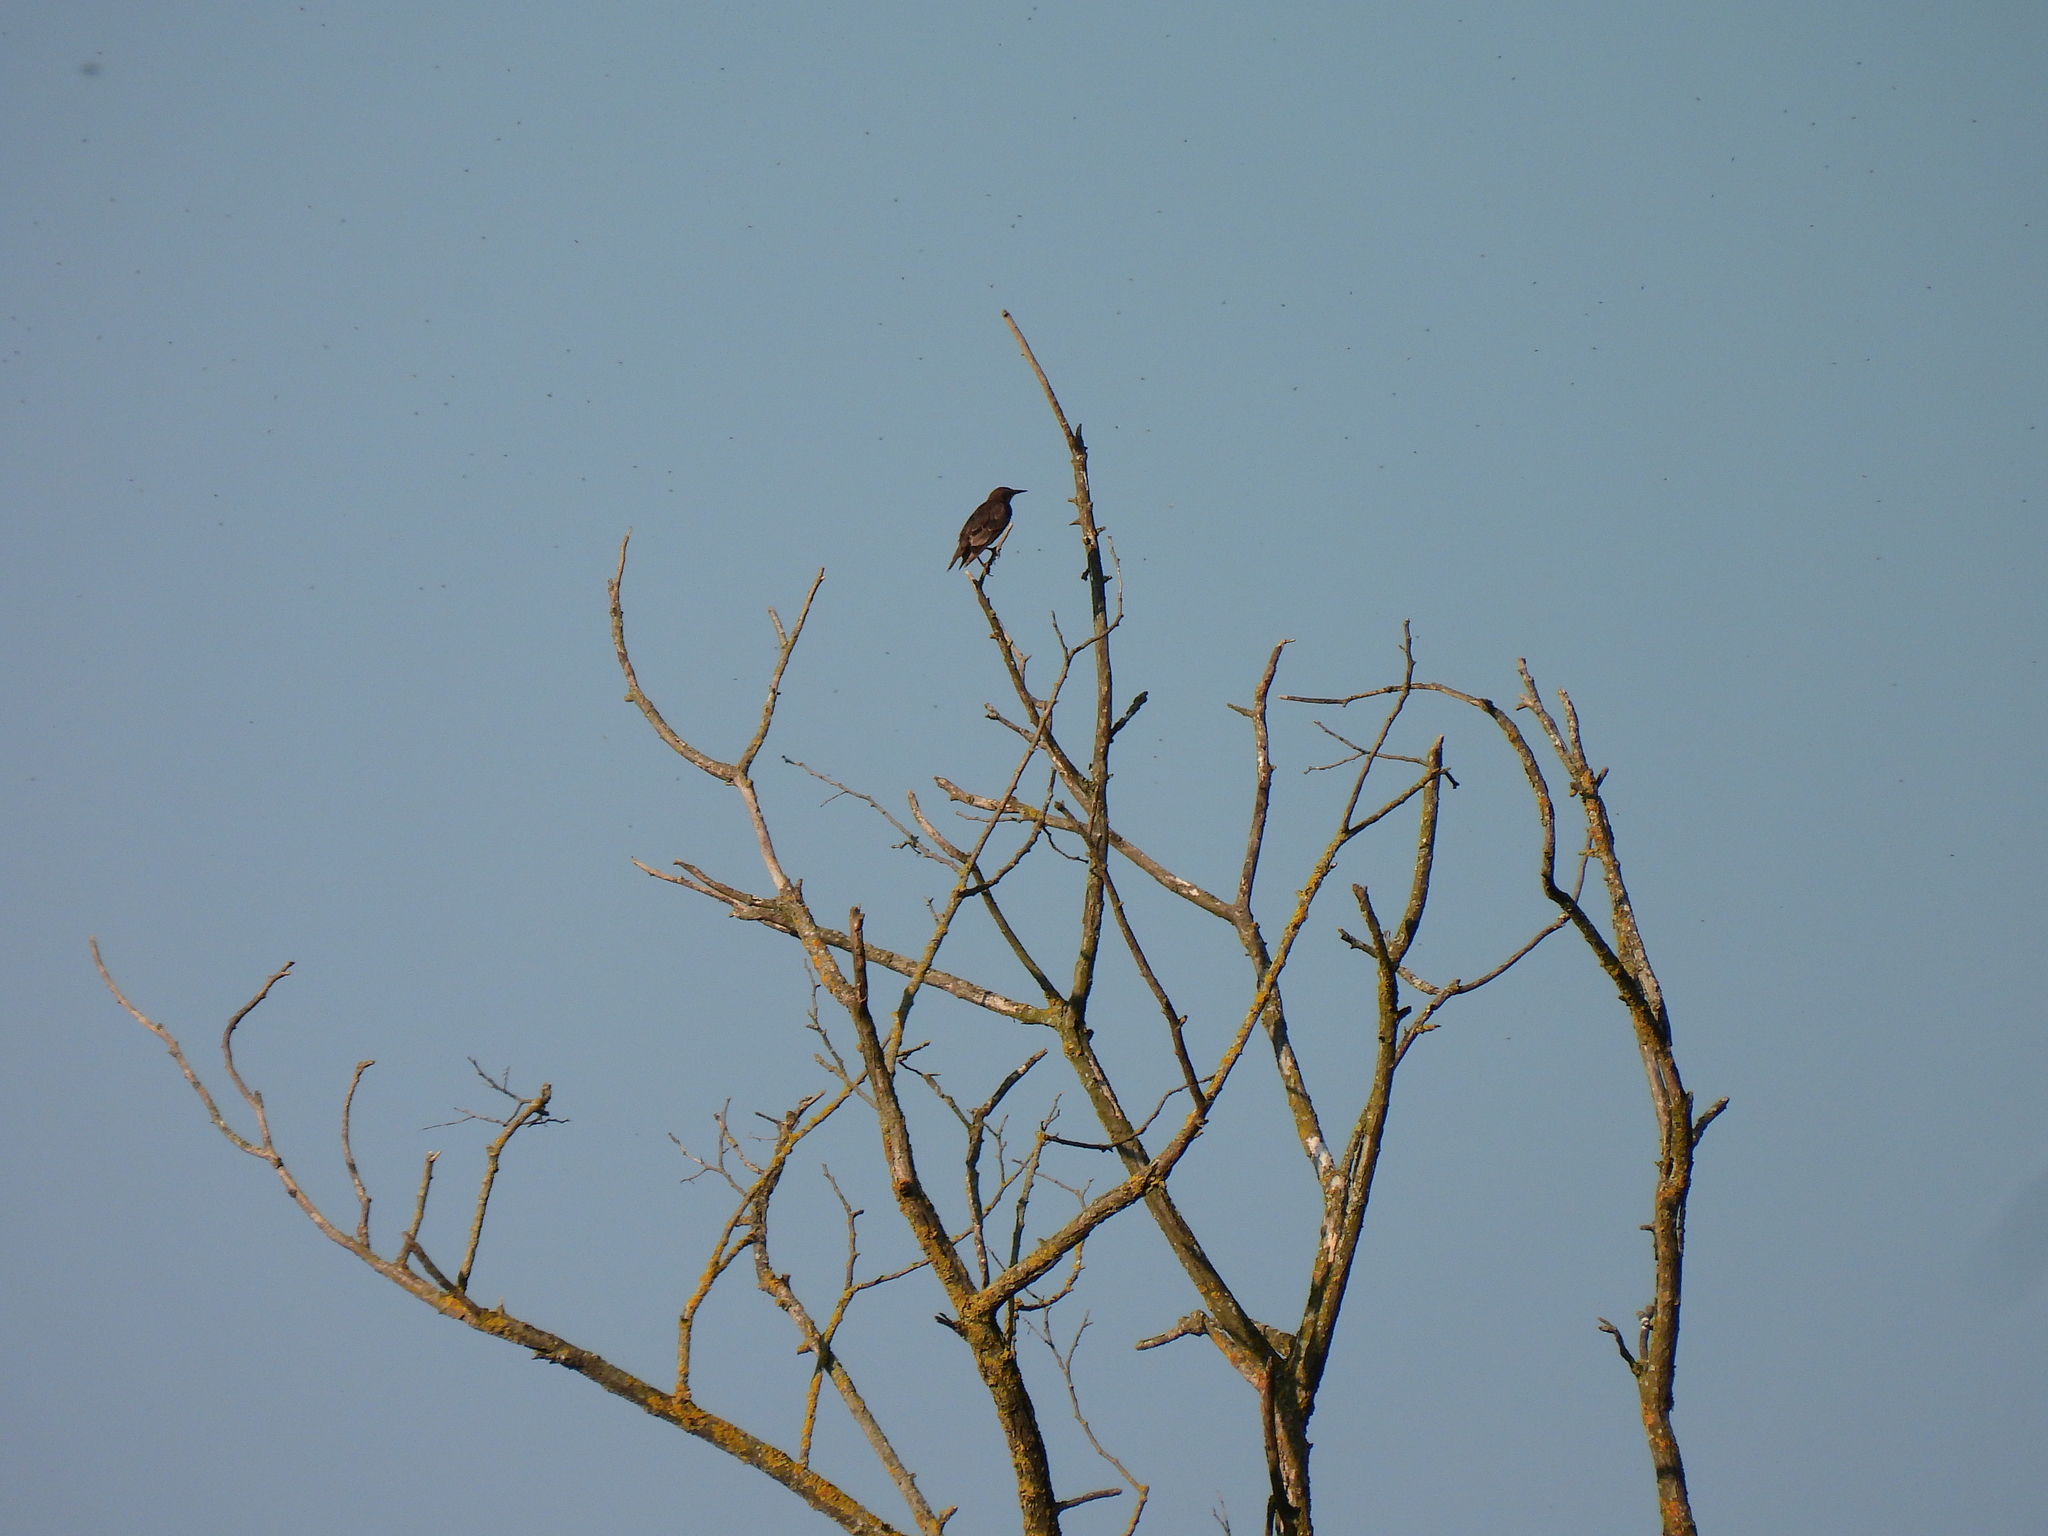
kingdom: Animalia
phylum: Chordata
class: Aves
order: Passeriformes
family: Sturnidae
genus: Sturnus
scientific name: Sturnus vulgaris
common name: Common starling
